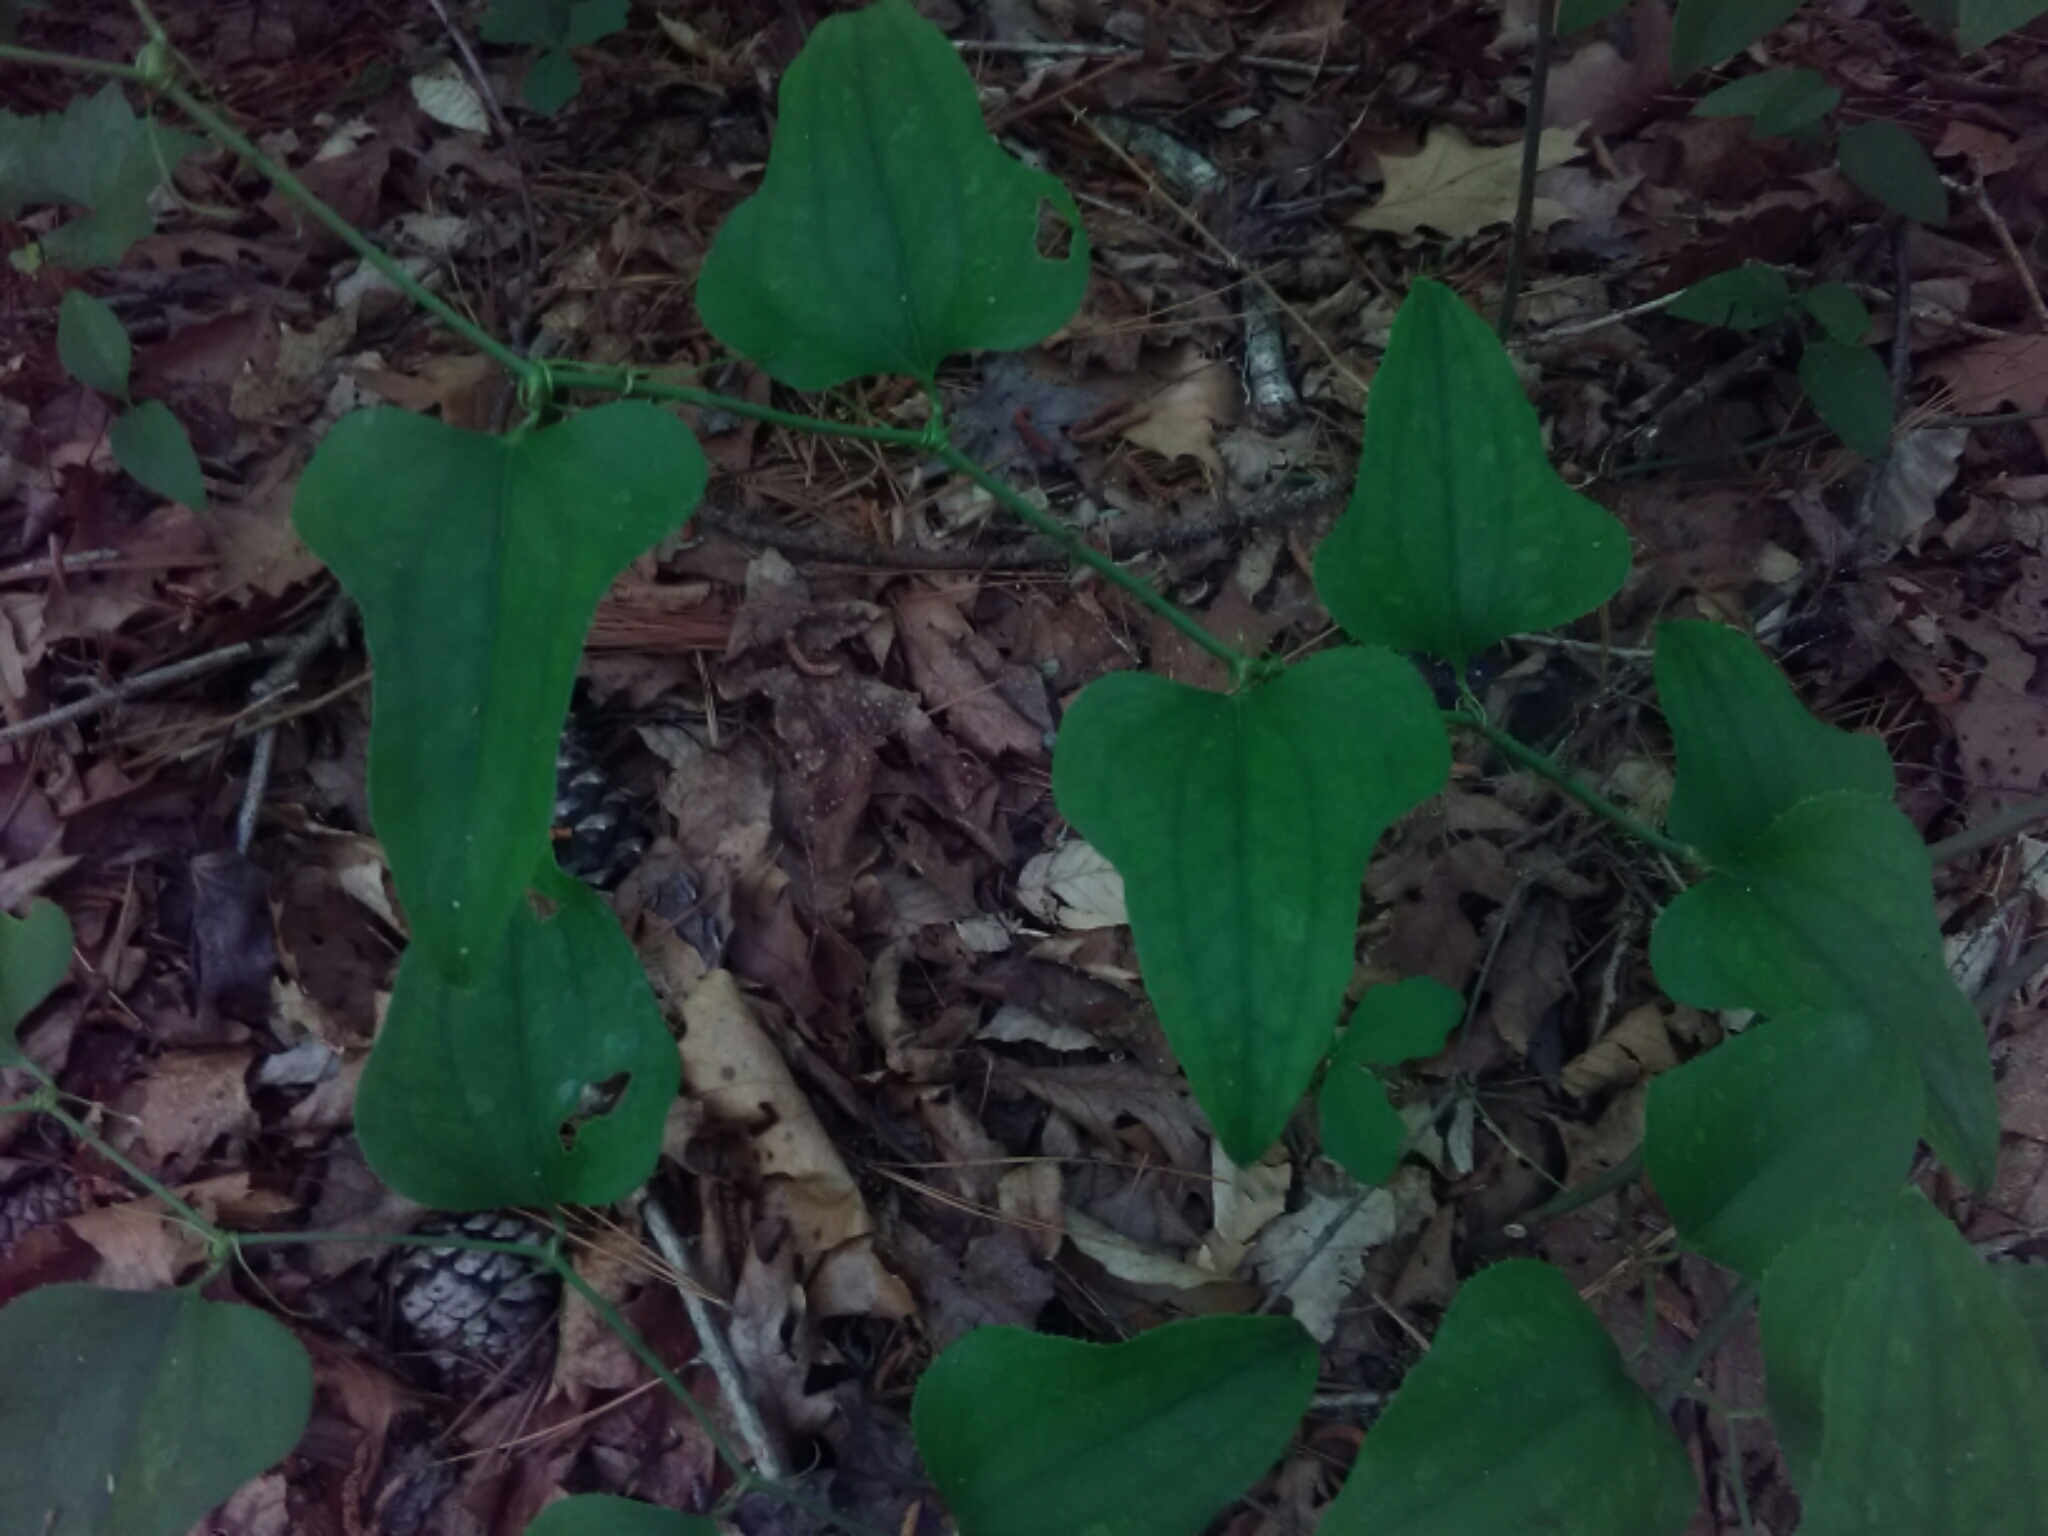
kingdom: Plantae
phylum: Tracheophyta
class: Liliopsida
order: Liliales
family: Smilacaceae
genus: Smilax
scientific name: Smilax bona-nox
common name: Catbrier
